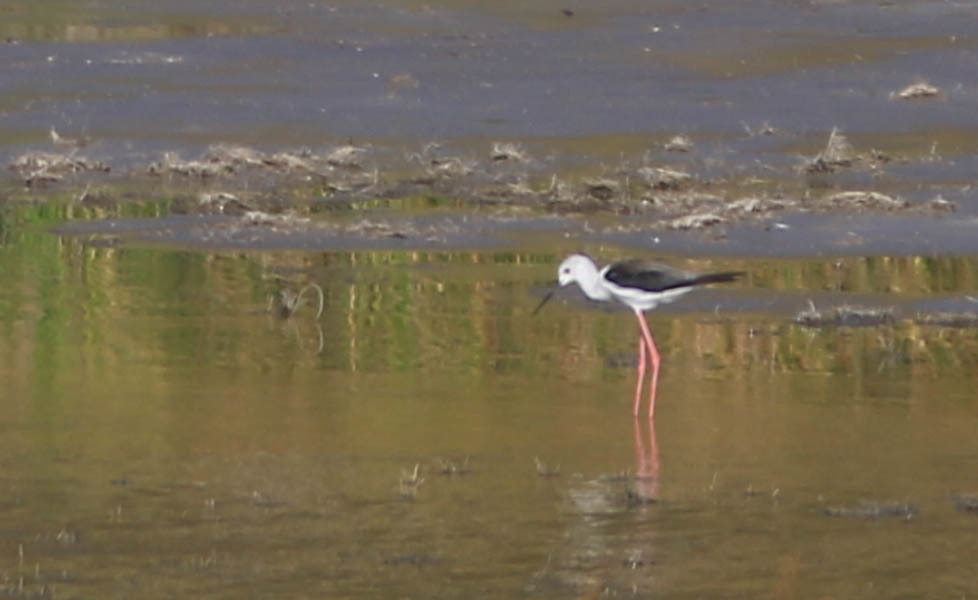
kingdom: Animalia
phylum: Chordata
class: Aves
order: Charadriiformes
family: Recurvirostridae
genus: Himantopus
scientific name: Himantopus himantopus
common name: Black-winged stilt
